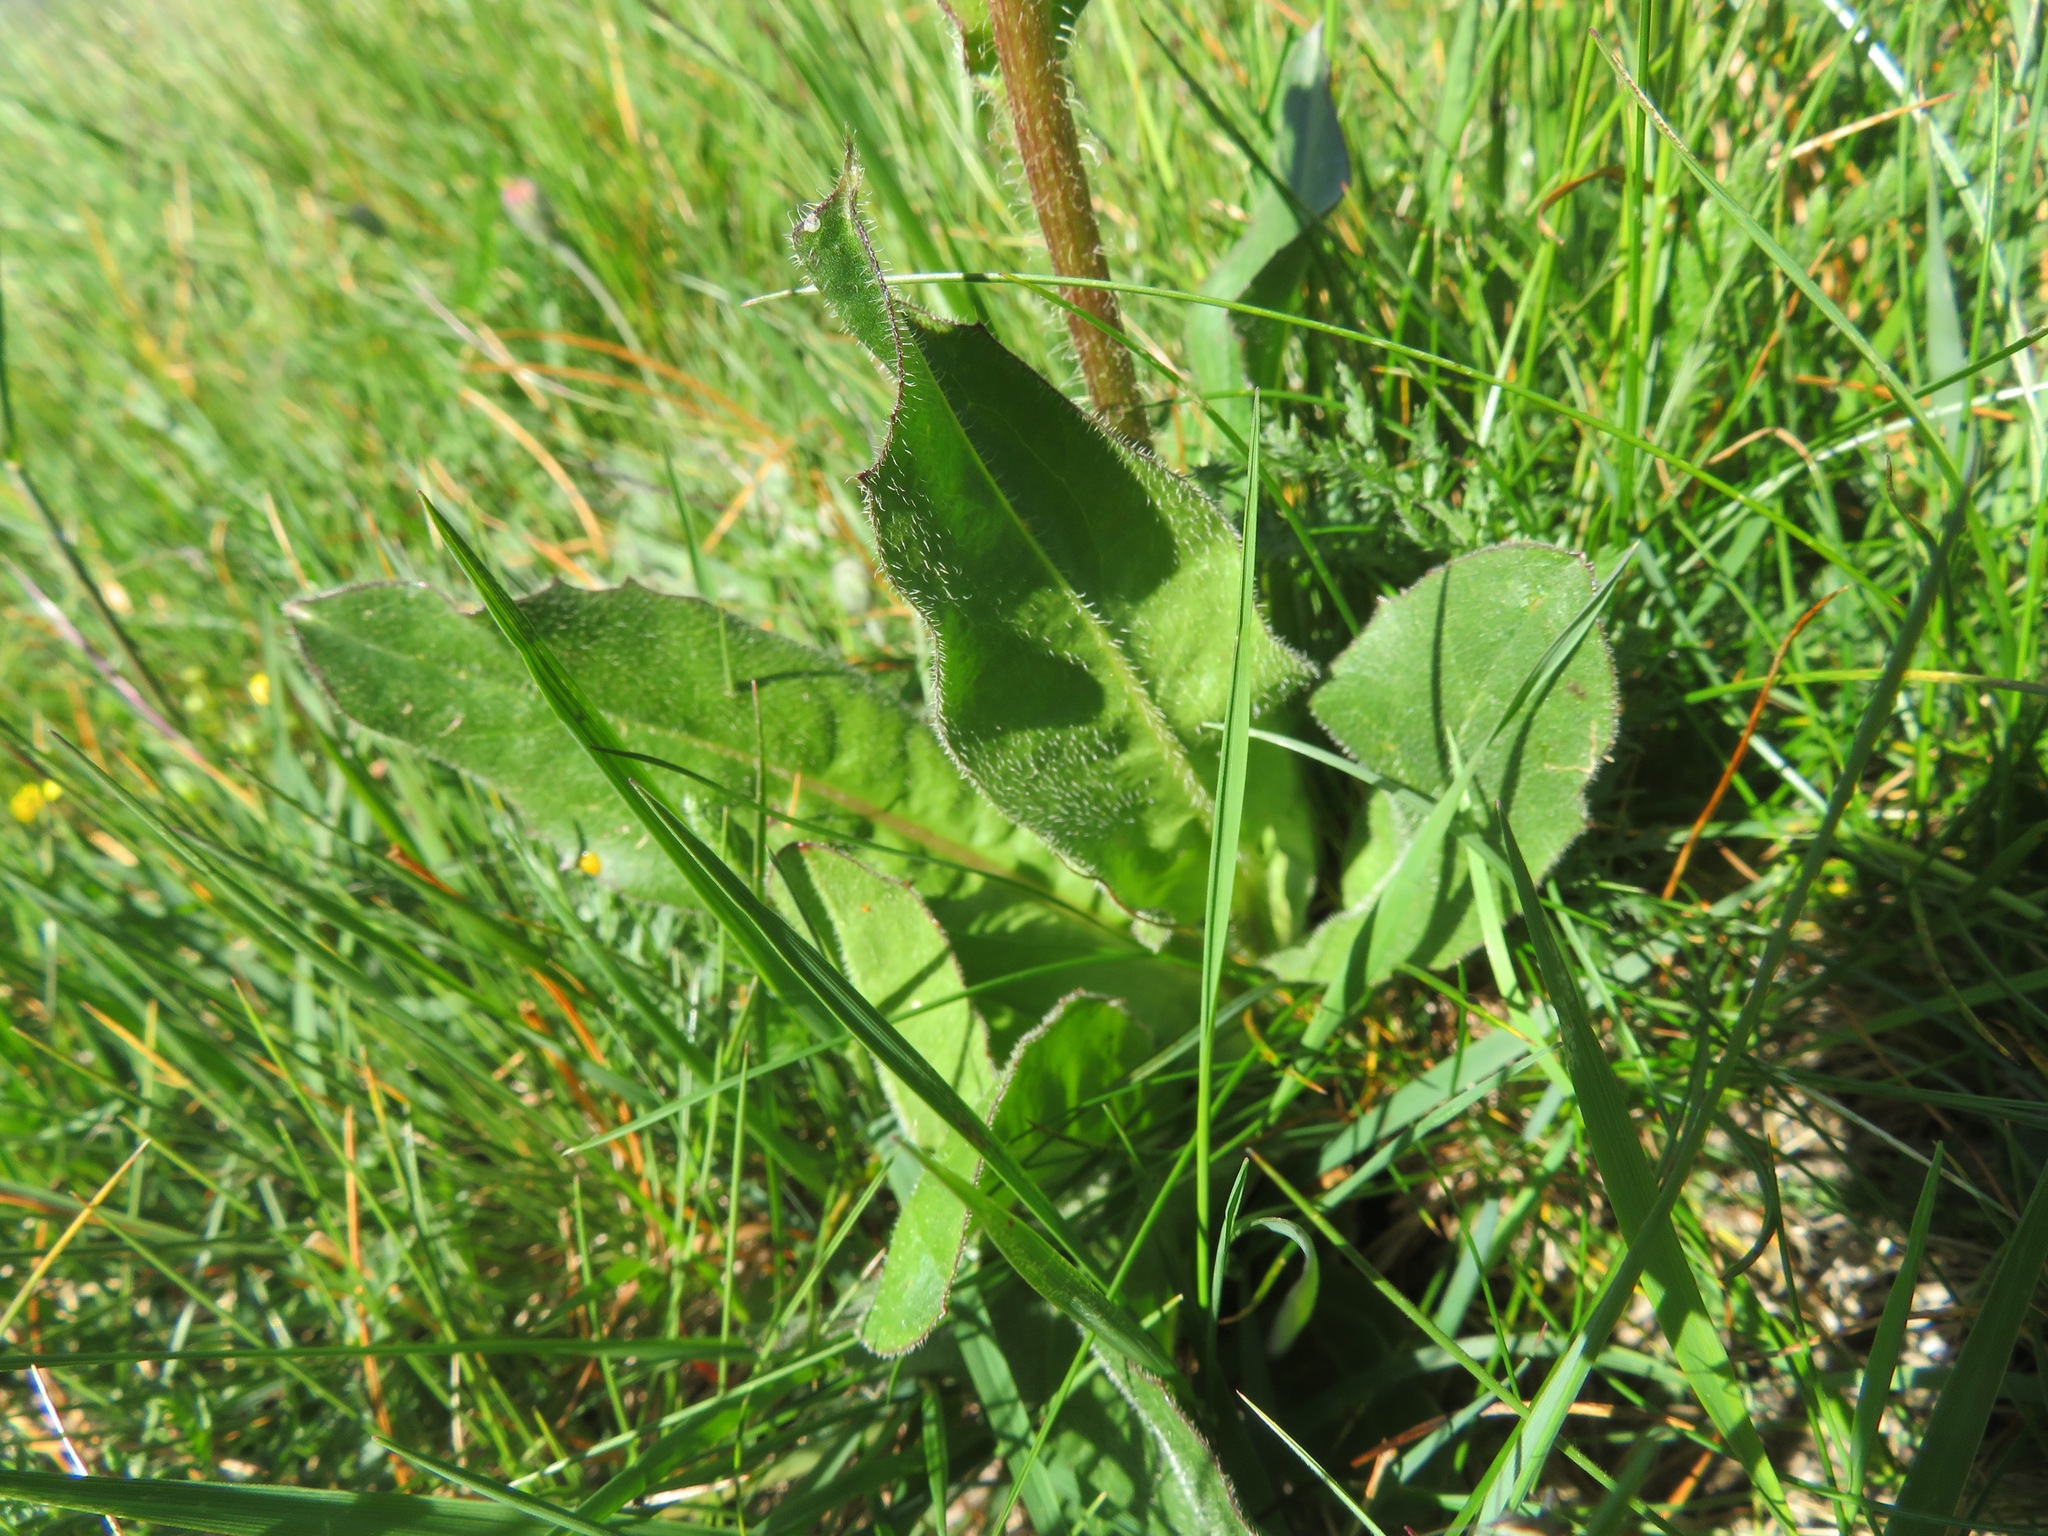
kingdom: Plantae
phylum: Tracheophyta
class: Magnoliopsida
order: Asterales
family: Asteraceae
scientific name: Asteraceae
